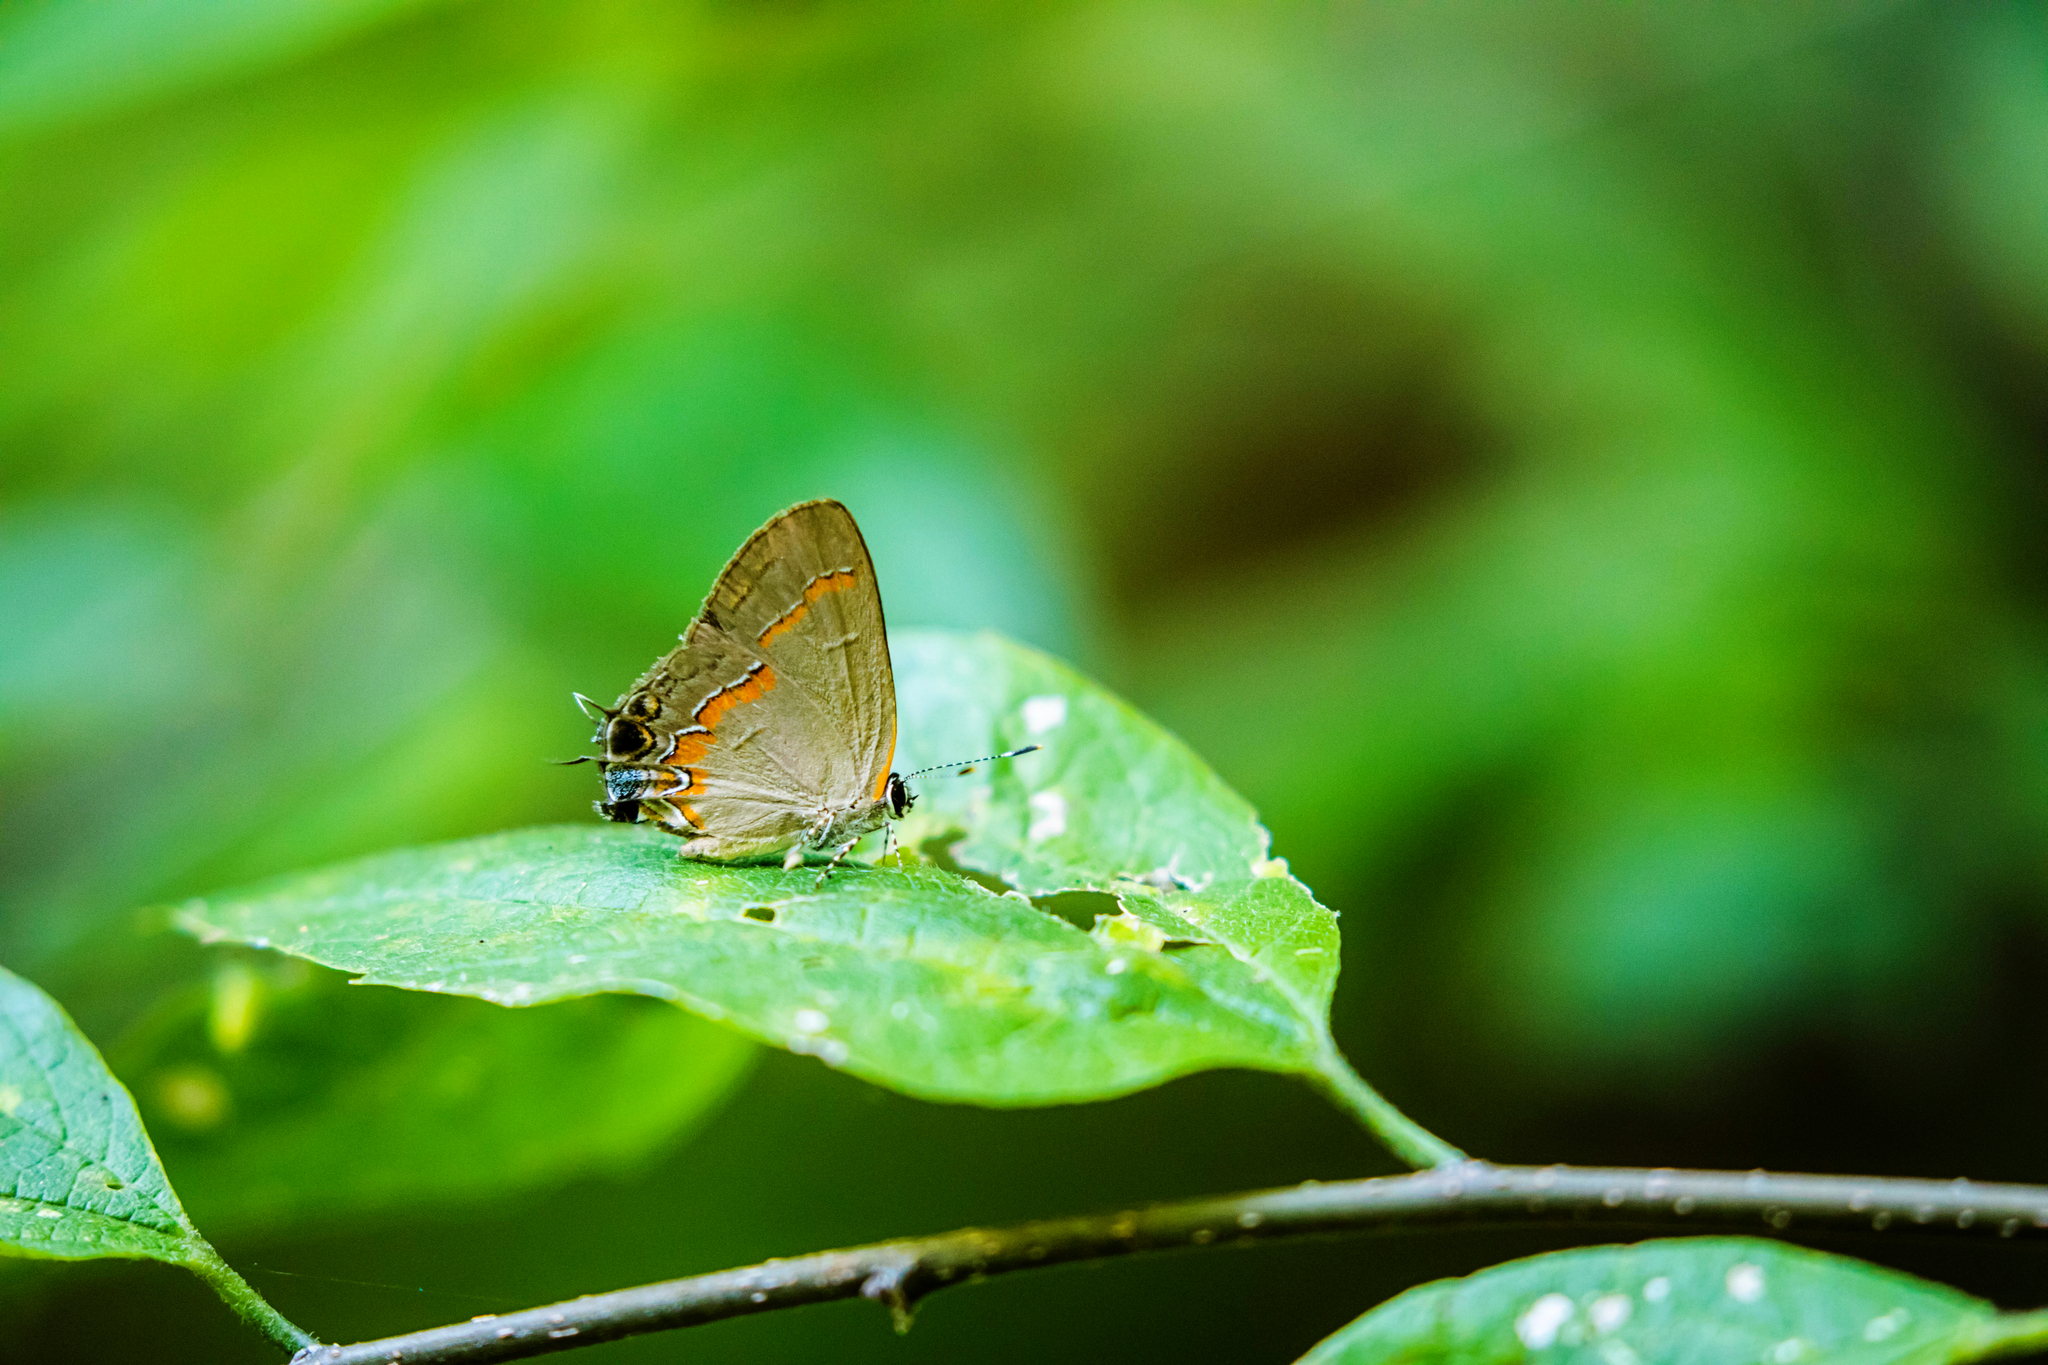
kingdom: Animalia
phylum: Arthropoda
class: Insecta
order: Lepidoptera
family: Lycaenidae
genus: Calycopis
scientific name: Calycopis cecrops
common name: Red-banded hairstreak
